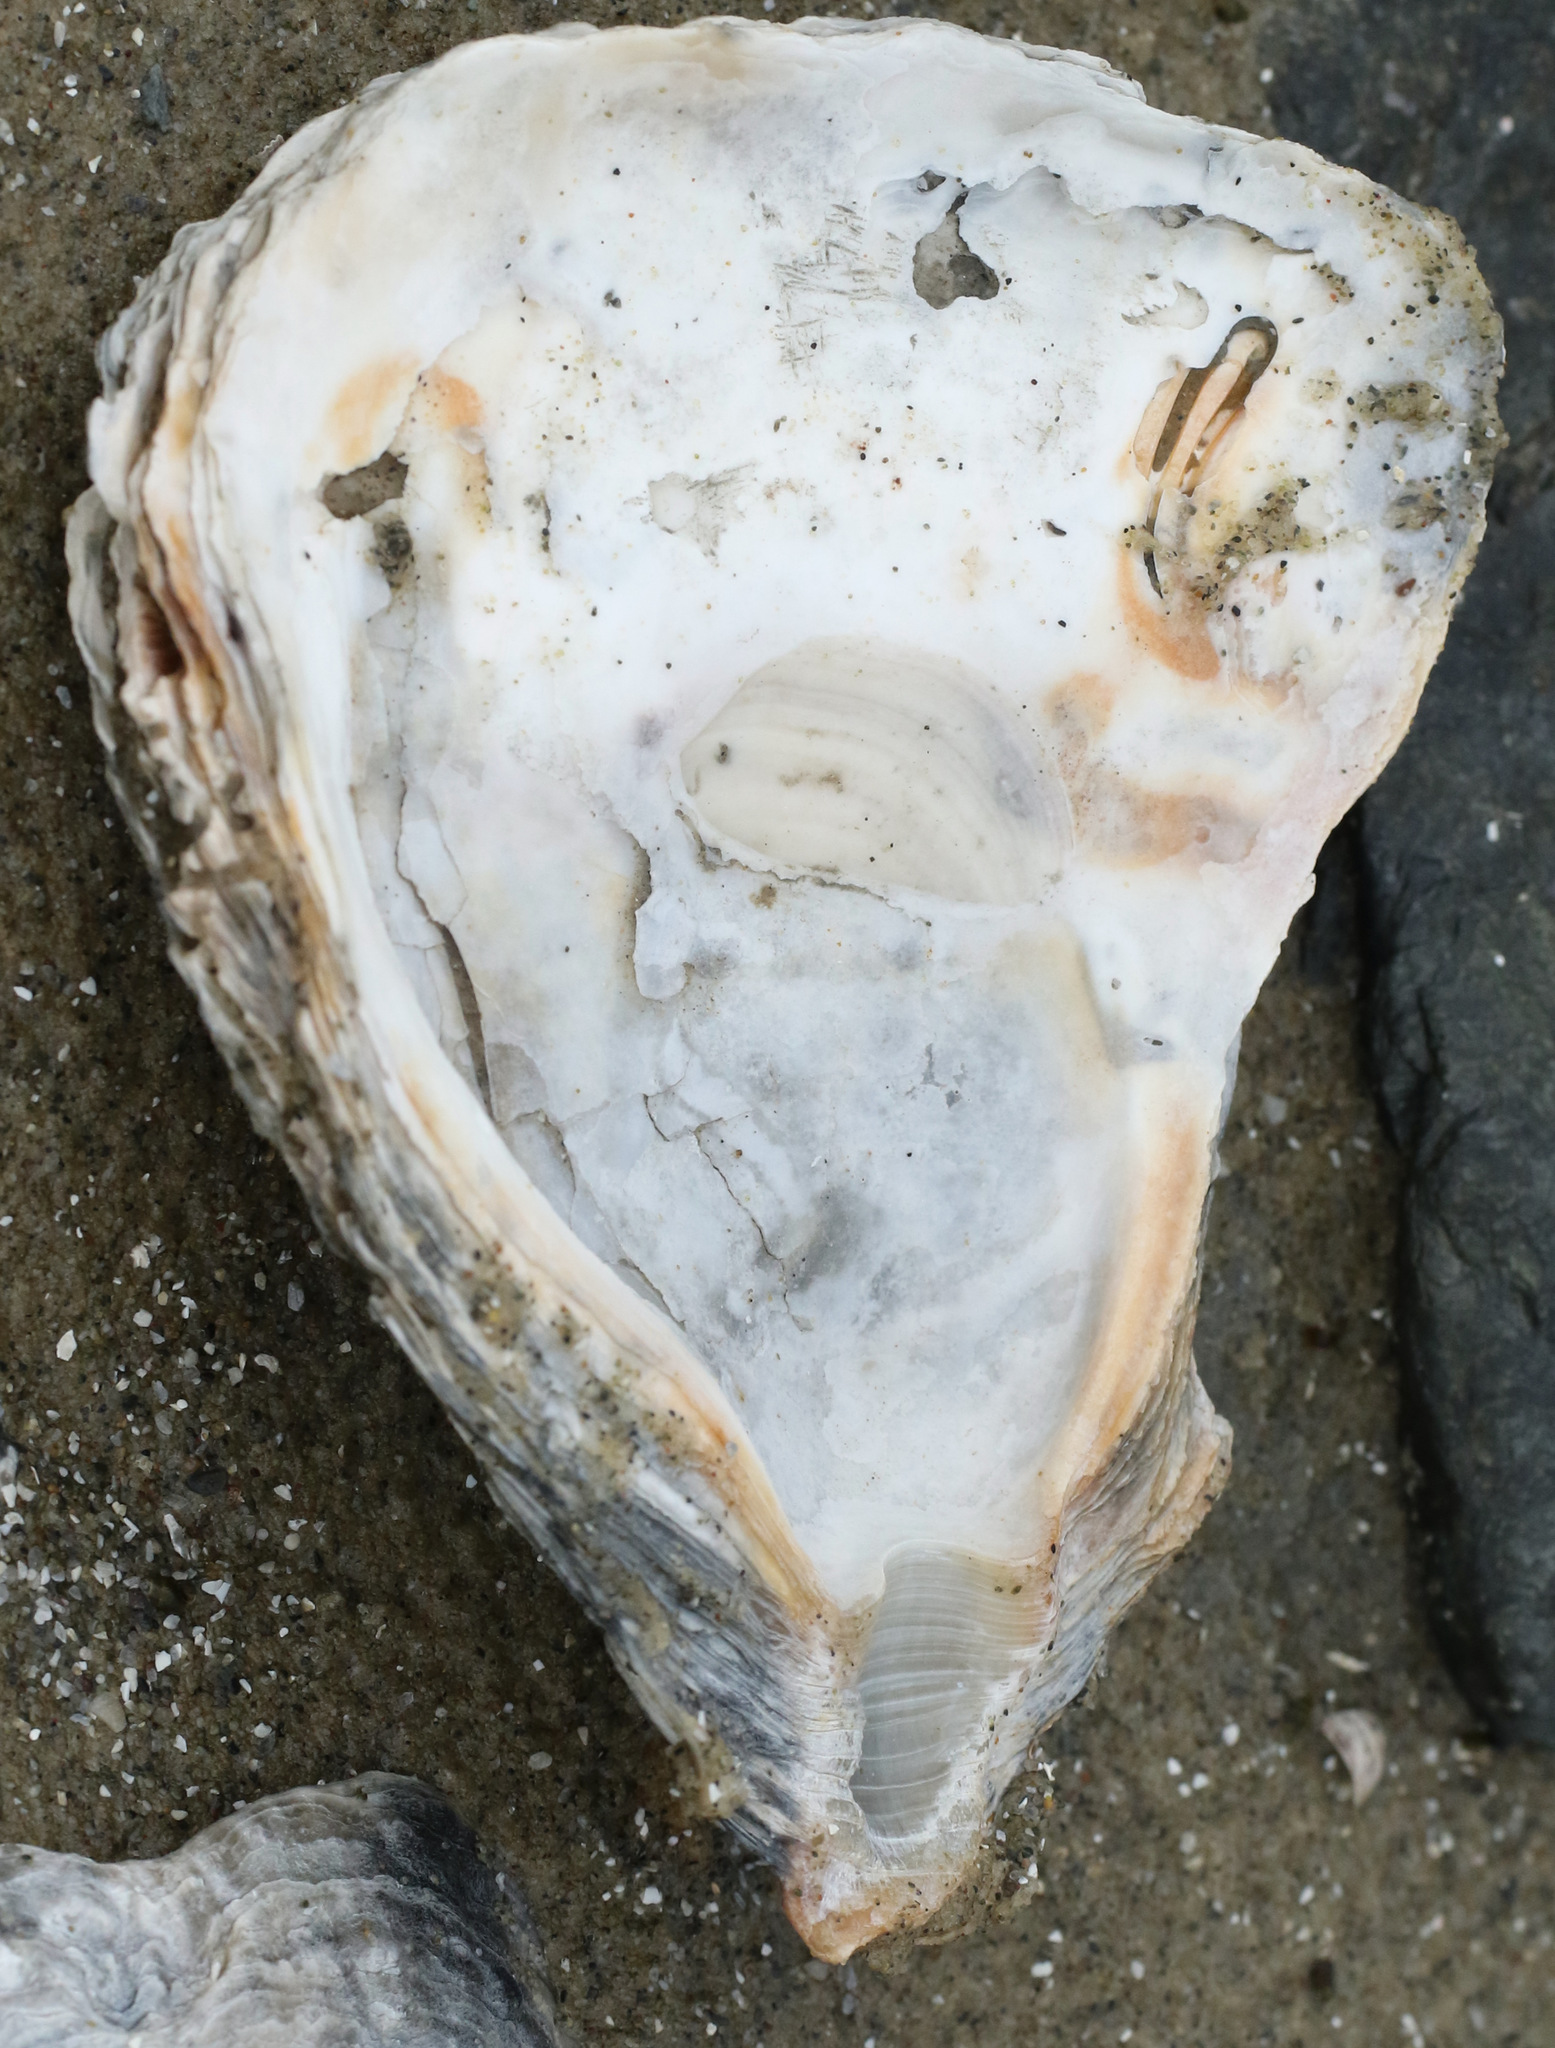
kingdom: Animalia
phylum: Mollusca
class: Bivalvia
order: Ostreida
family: Ostreidae
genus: Magallana
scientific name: Magallana gigas
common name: Pacific oyster
